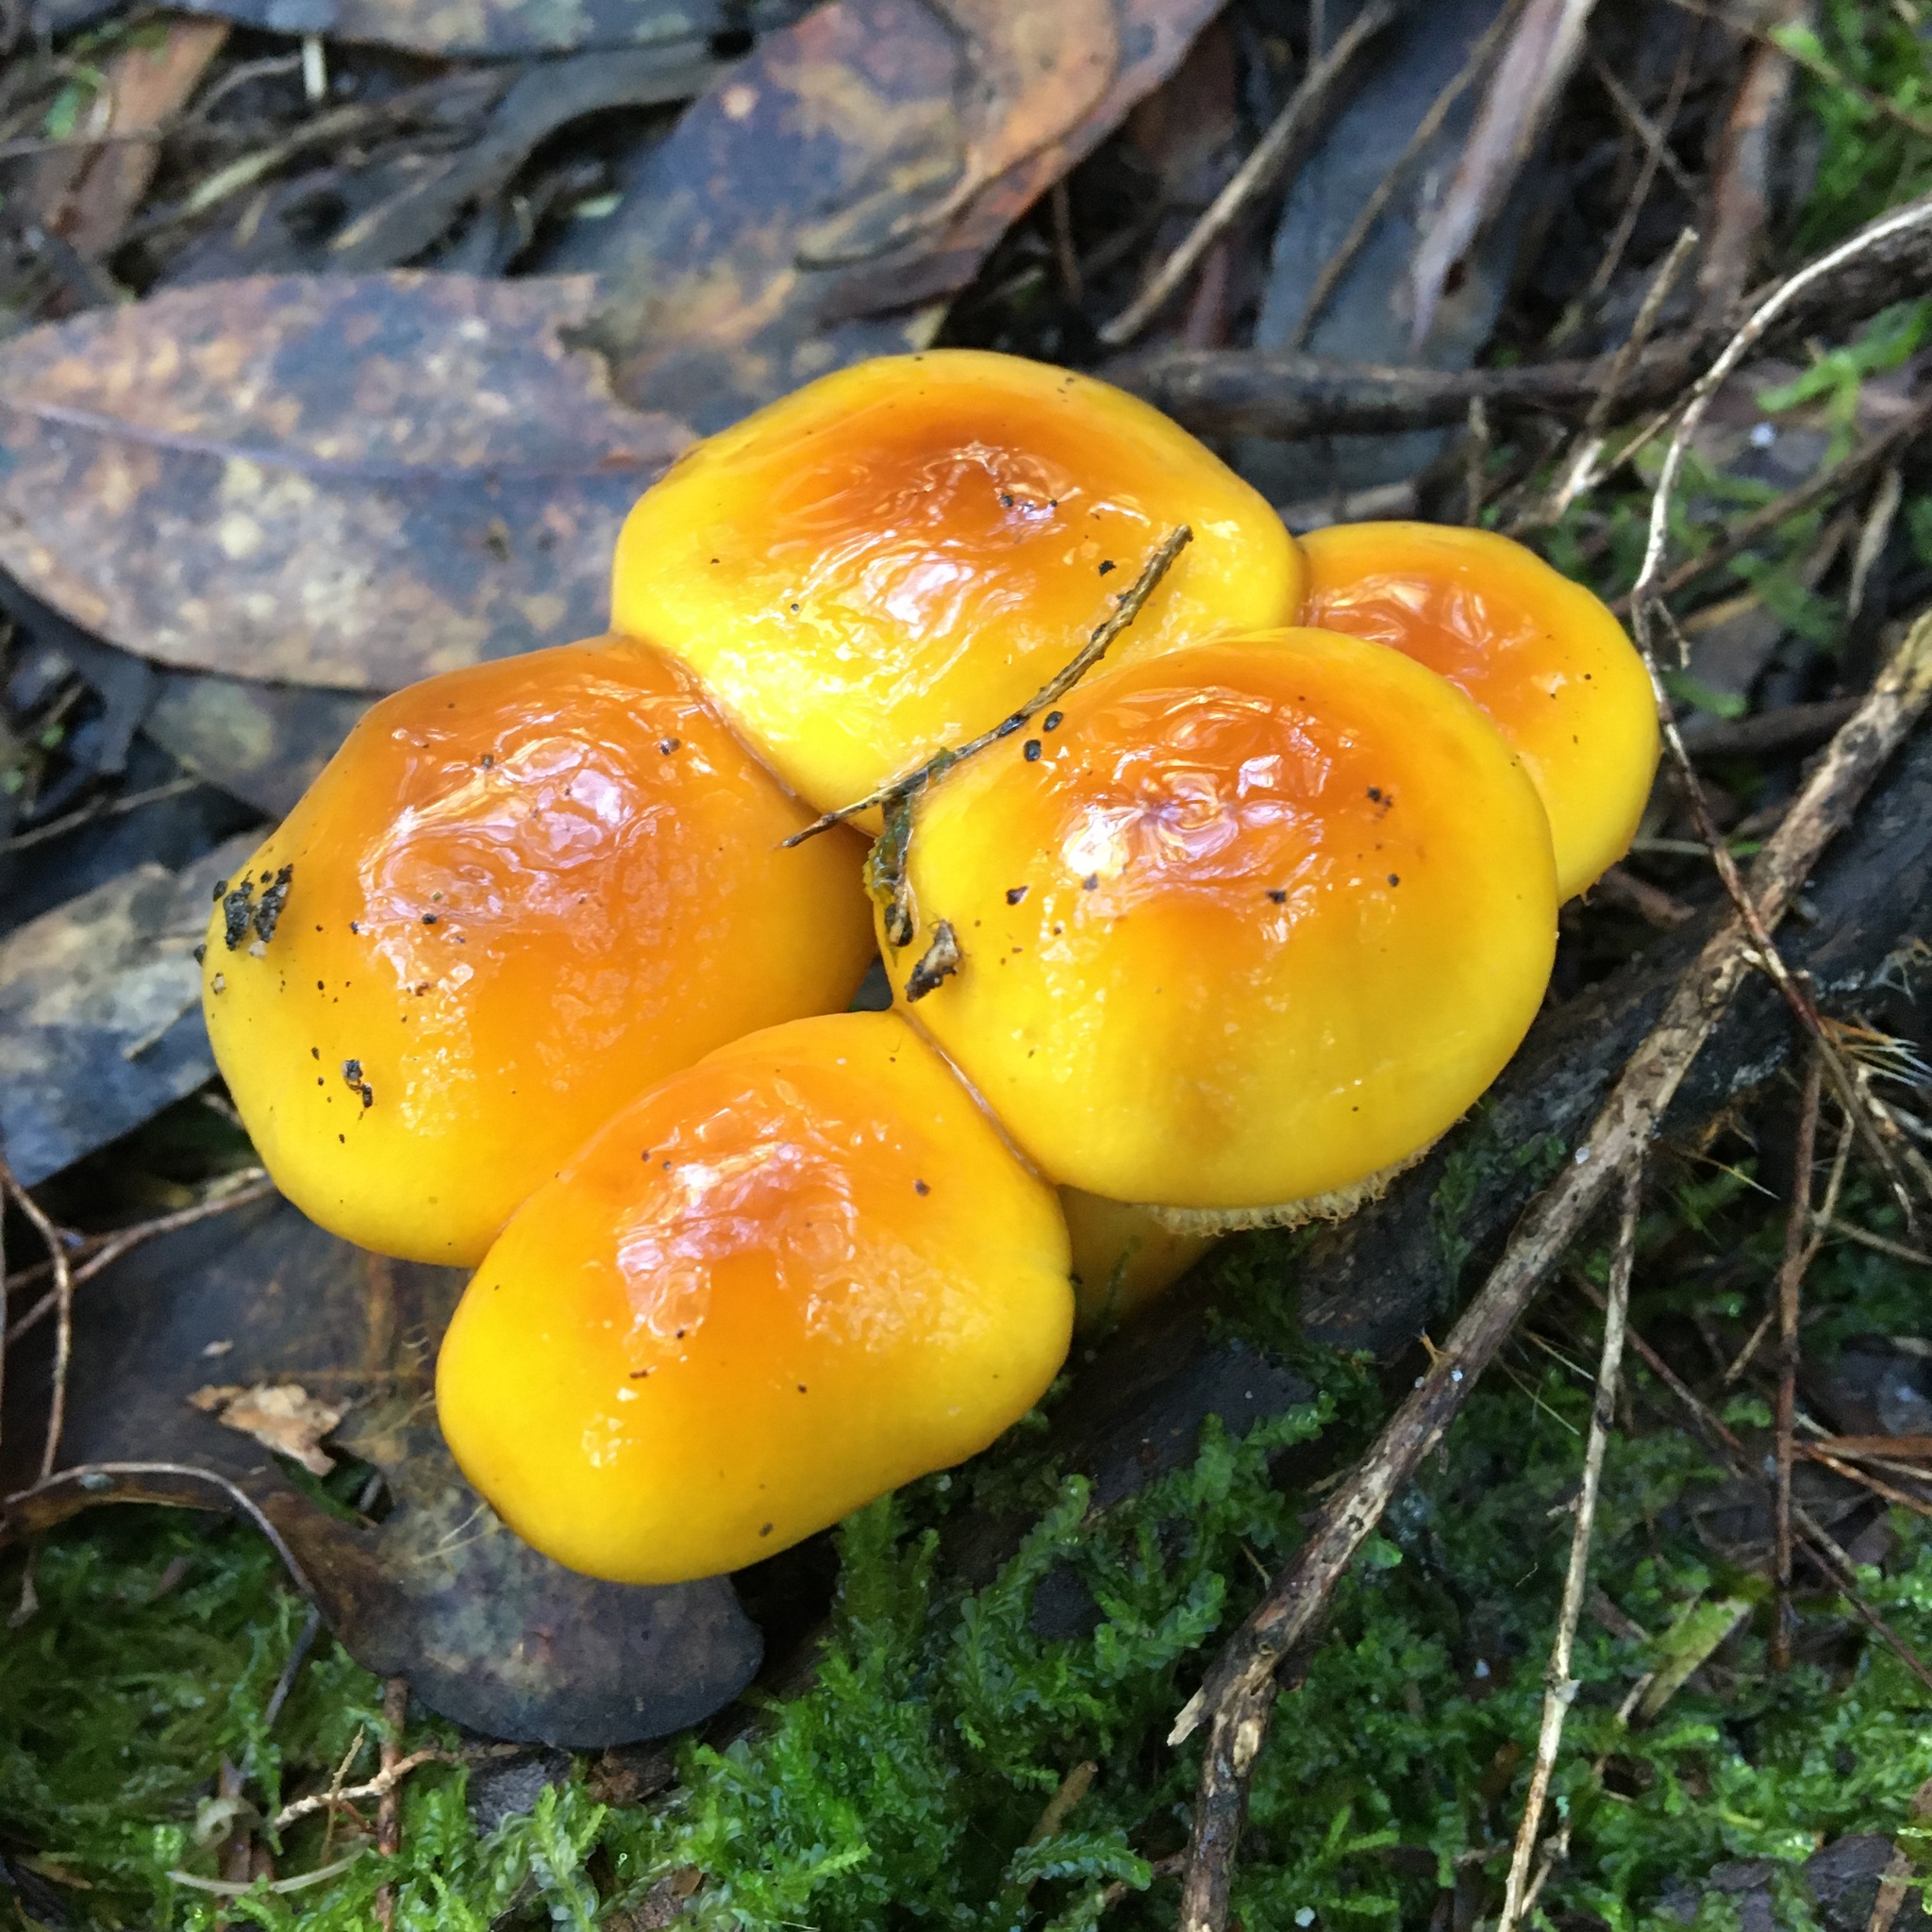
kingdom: Fungi
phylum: Basidiomycota
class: Agaricomycetes
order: Agaricales
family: Cortinariaceae
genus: Cortinarius
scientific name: Cortinarius sinapicolor
